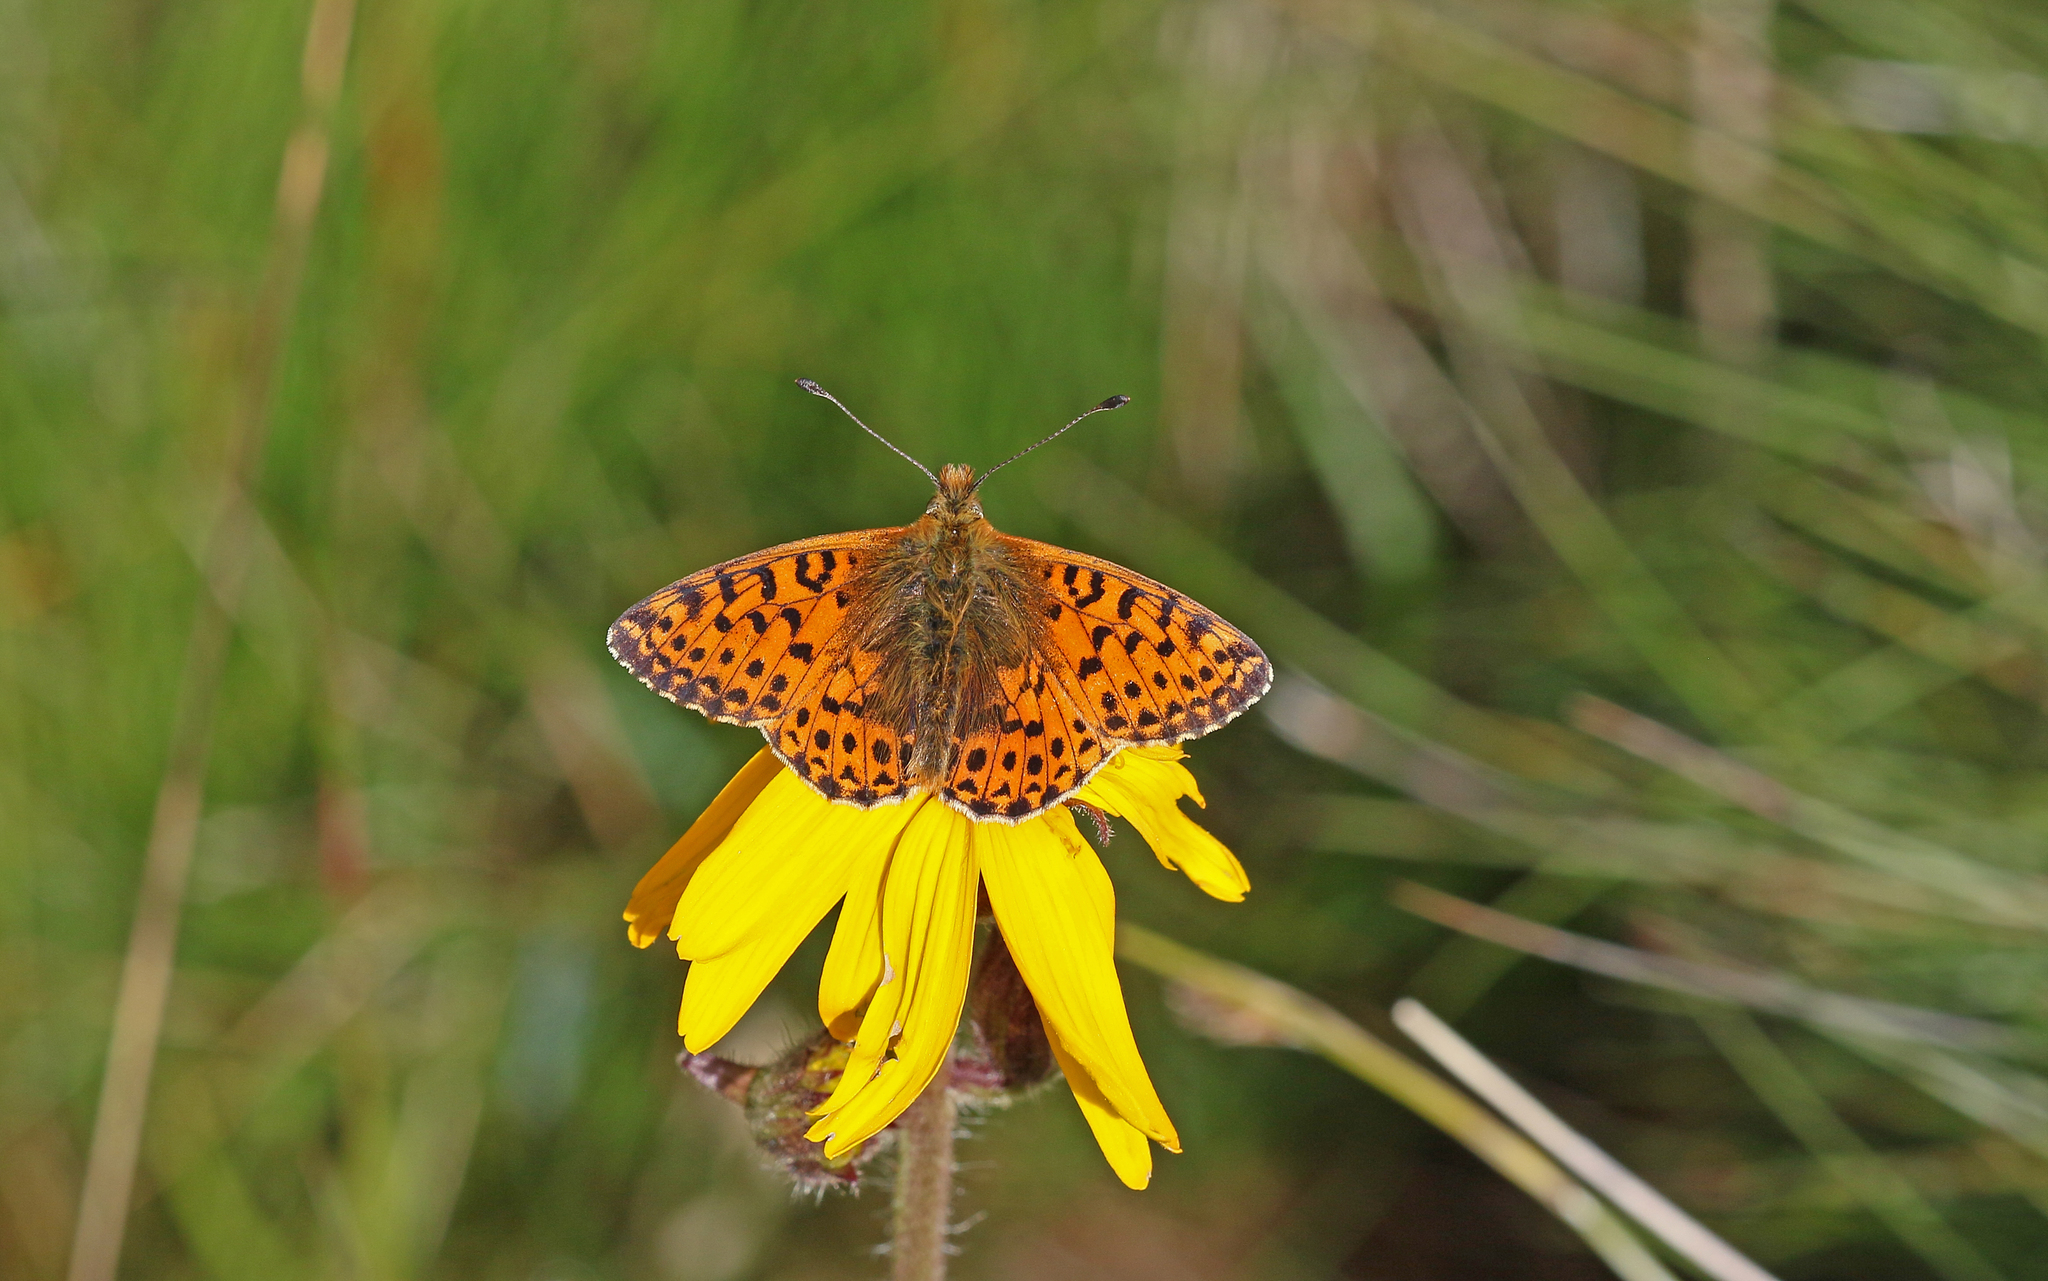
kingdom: Animalia
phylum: Arthropoda
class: Insecta
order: Lepidoptera
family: Nymphalidae
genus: Boloria
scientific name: Boloria graeca
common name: Balkan fritillary
